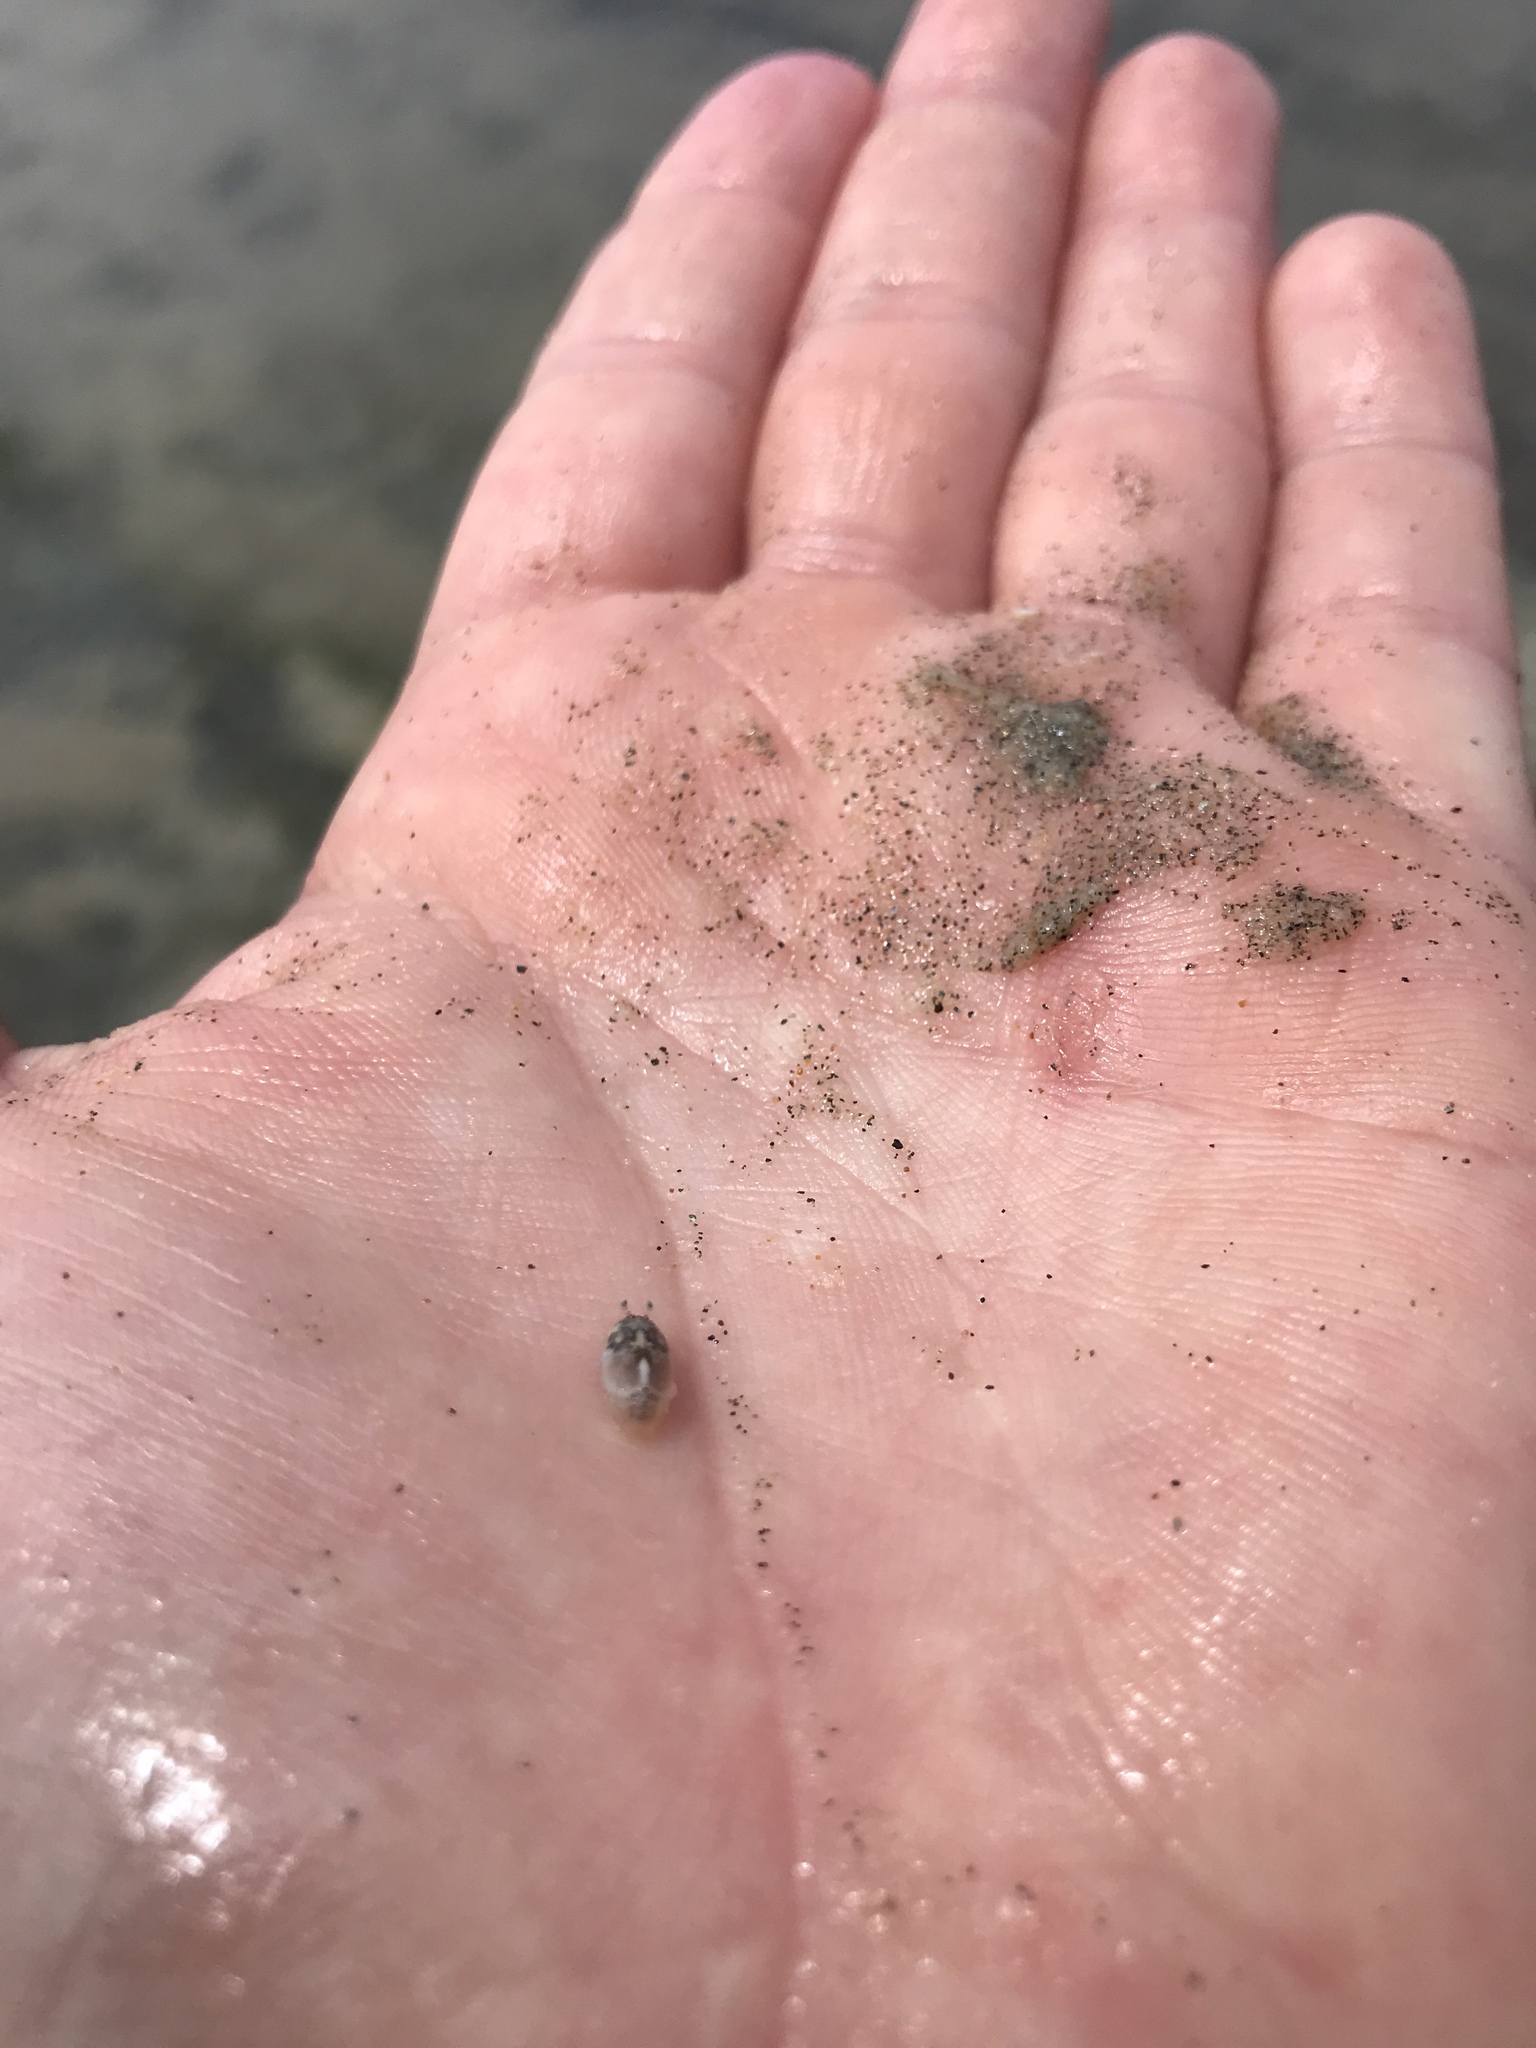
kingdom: Animalia
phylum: Arthropoda
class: Malacostraca
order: Decapoda
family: Hippidae
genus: Emerita
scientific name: Emerita analoga
